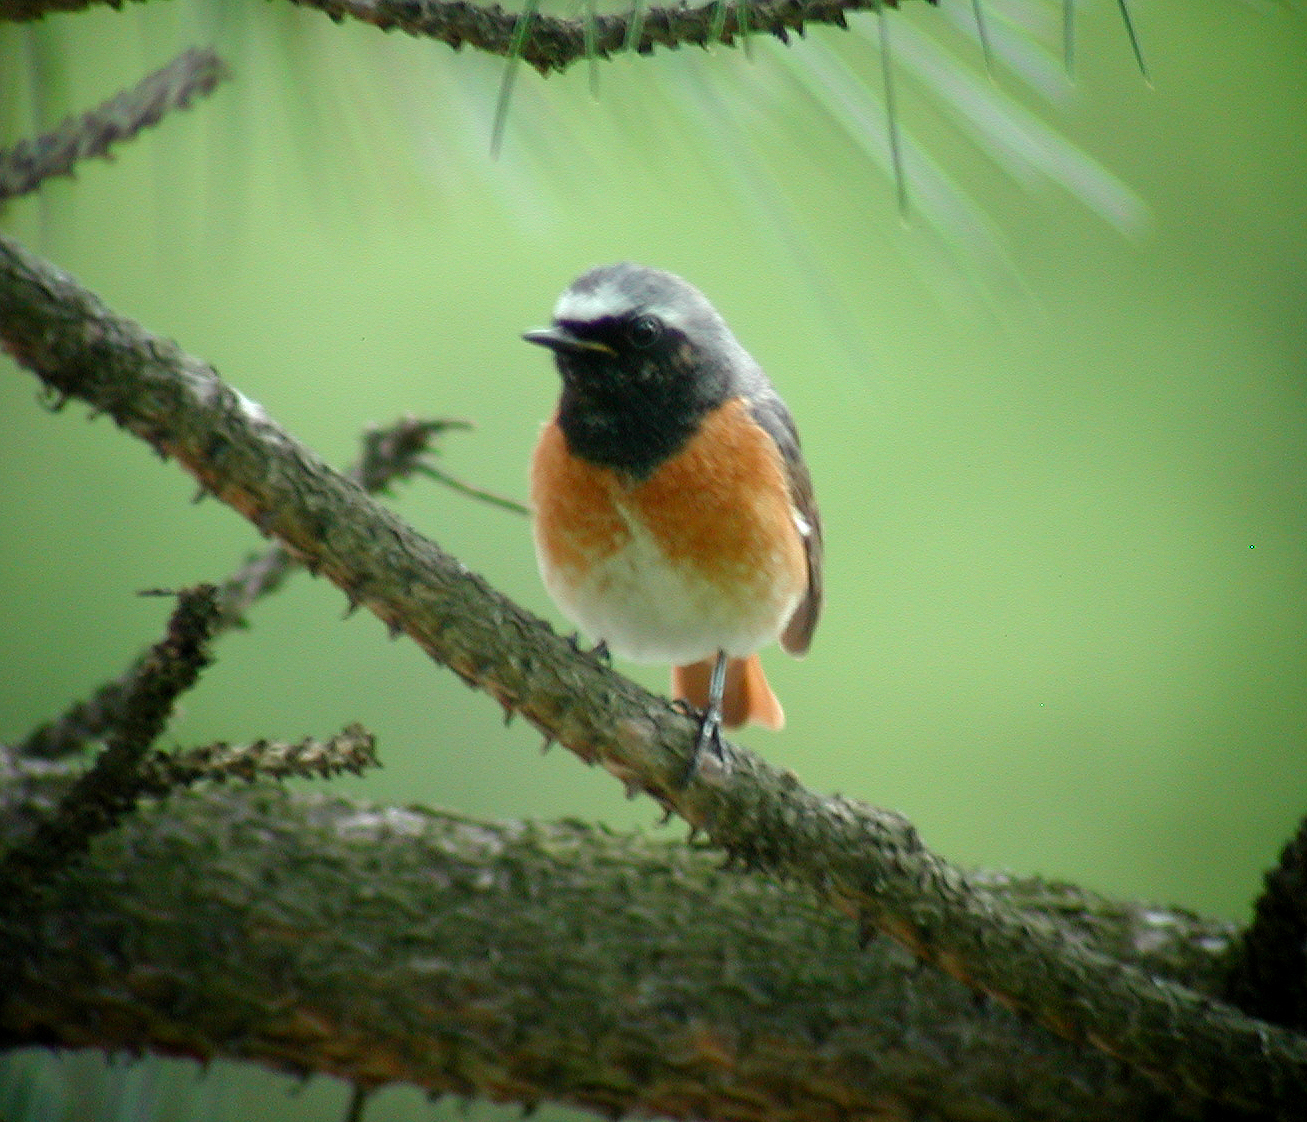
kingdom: Animalia
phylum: Chordata
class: Aves
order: Passeriformes
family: Muscicapidae
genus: Phoenicurus
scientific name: Phoenicurus phoenicurus
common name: Common redstart
